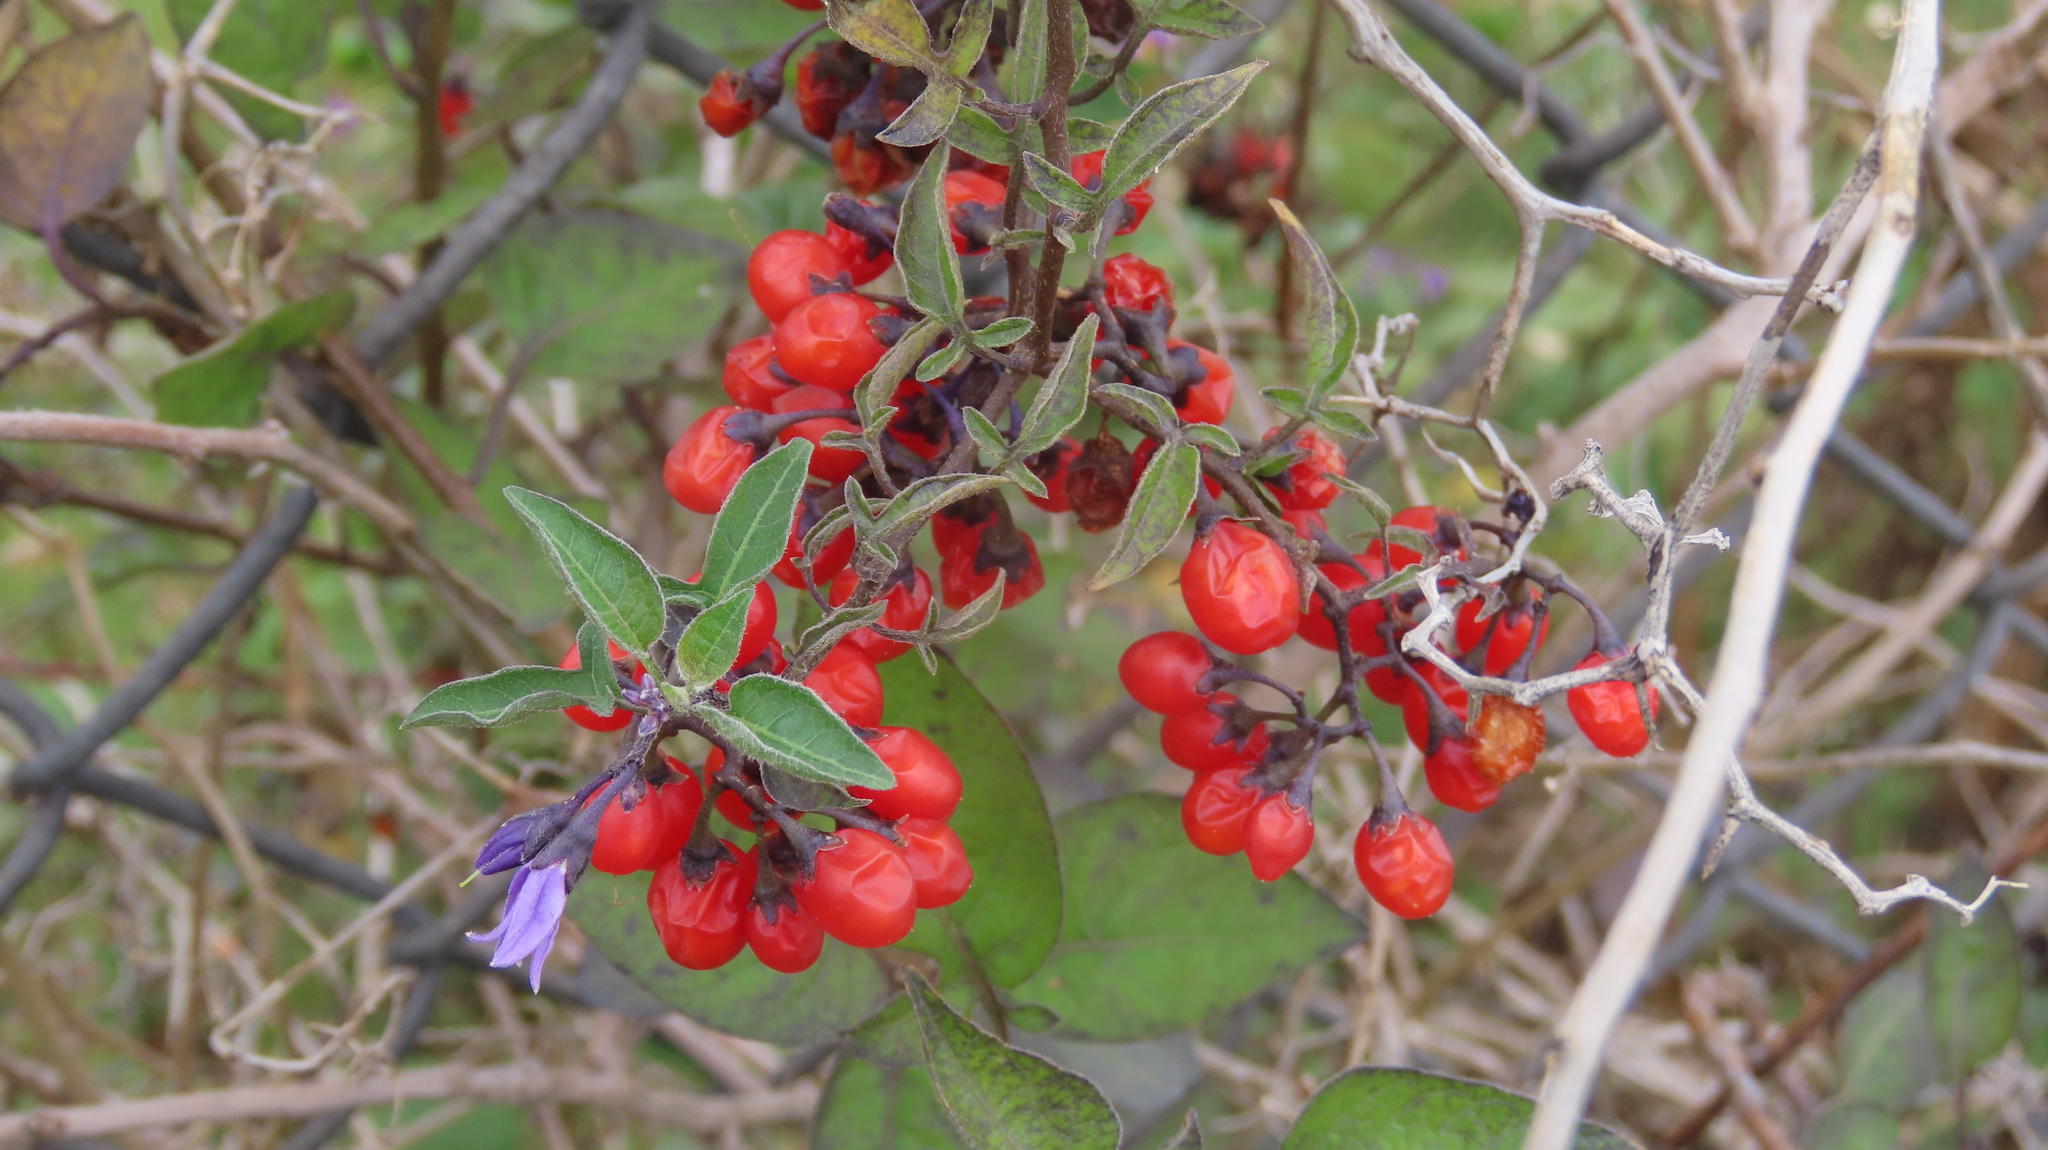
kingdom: Plantae
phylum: Tracheophyta
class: Magnoliopsida
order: Solanales
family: Solanaceae
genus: Solanum
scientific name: Solanum dulcamara
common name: Climbing nightshade
